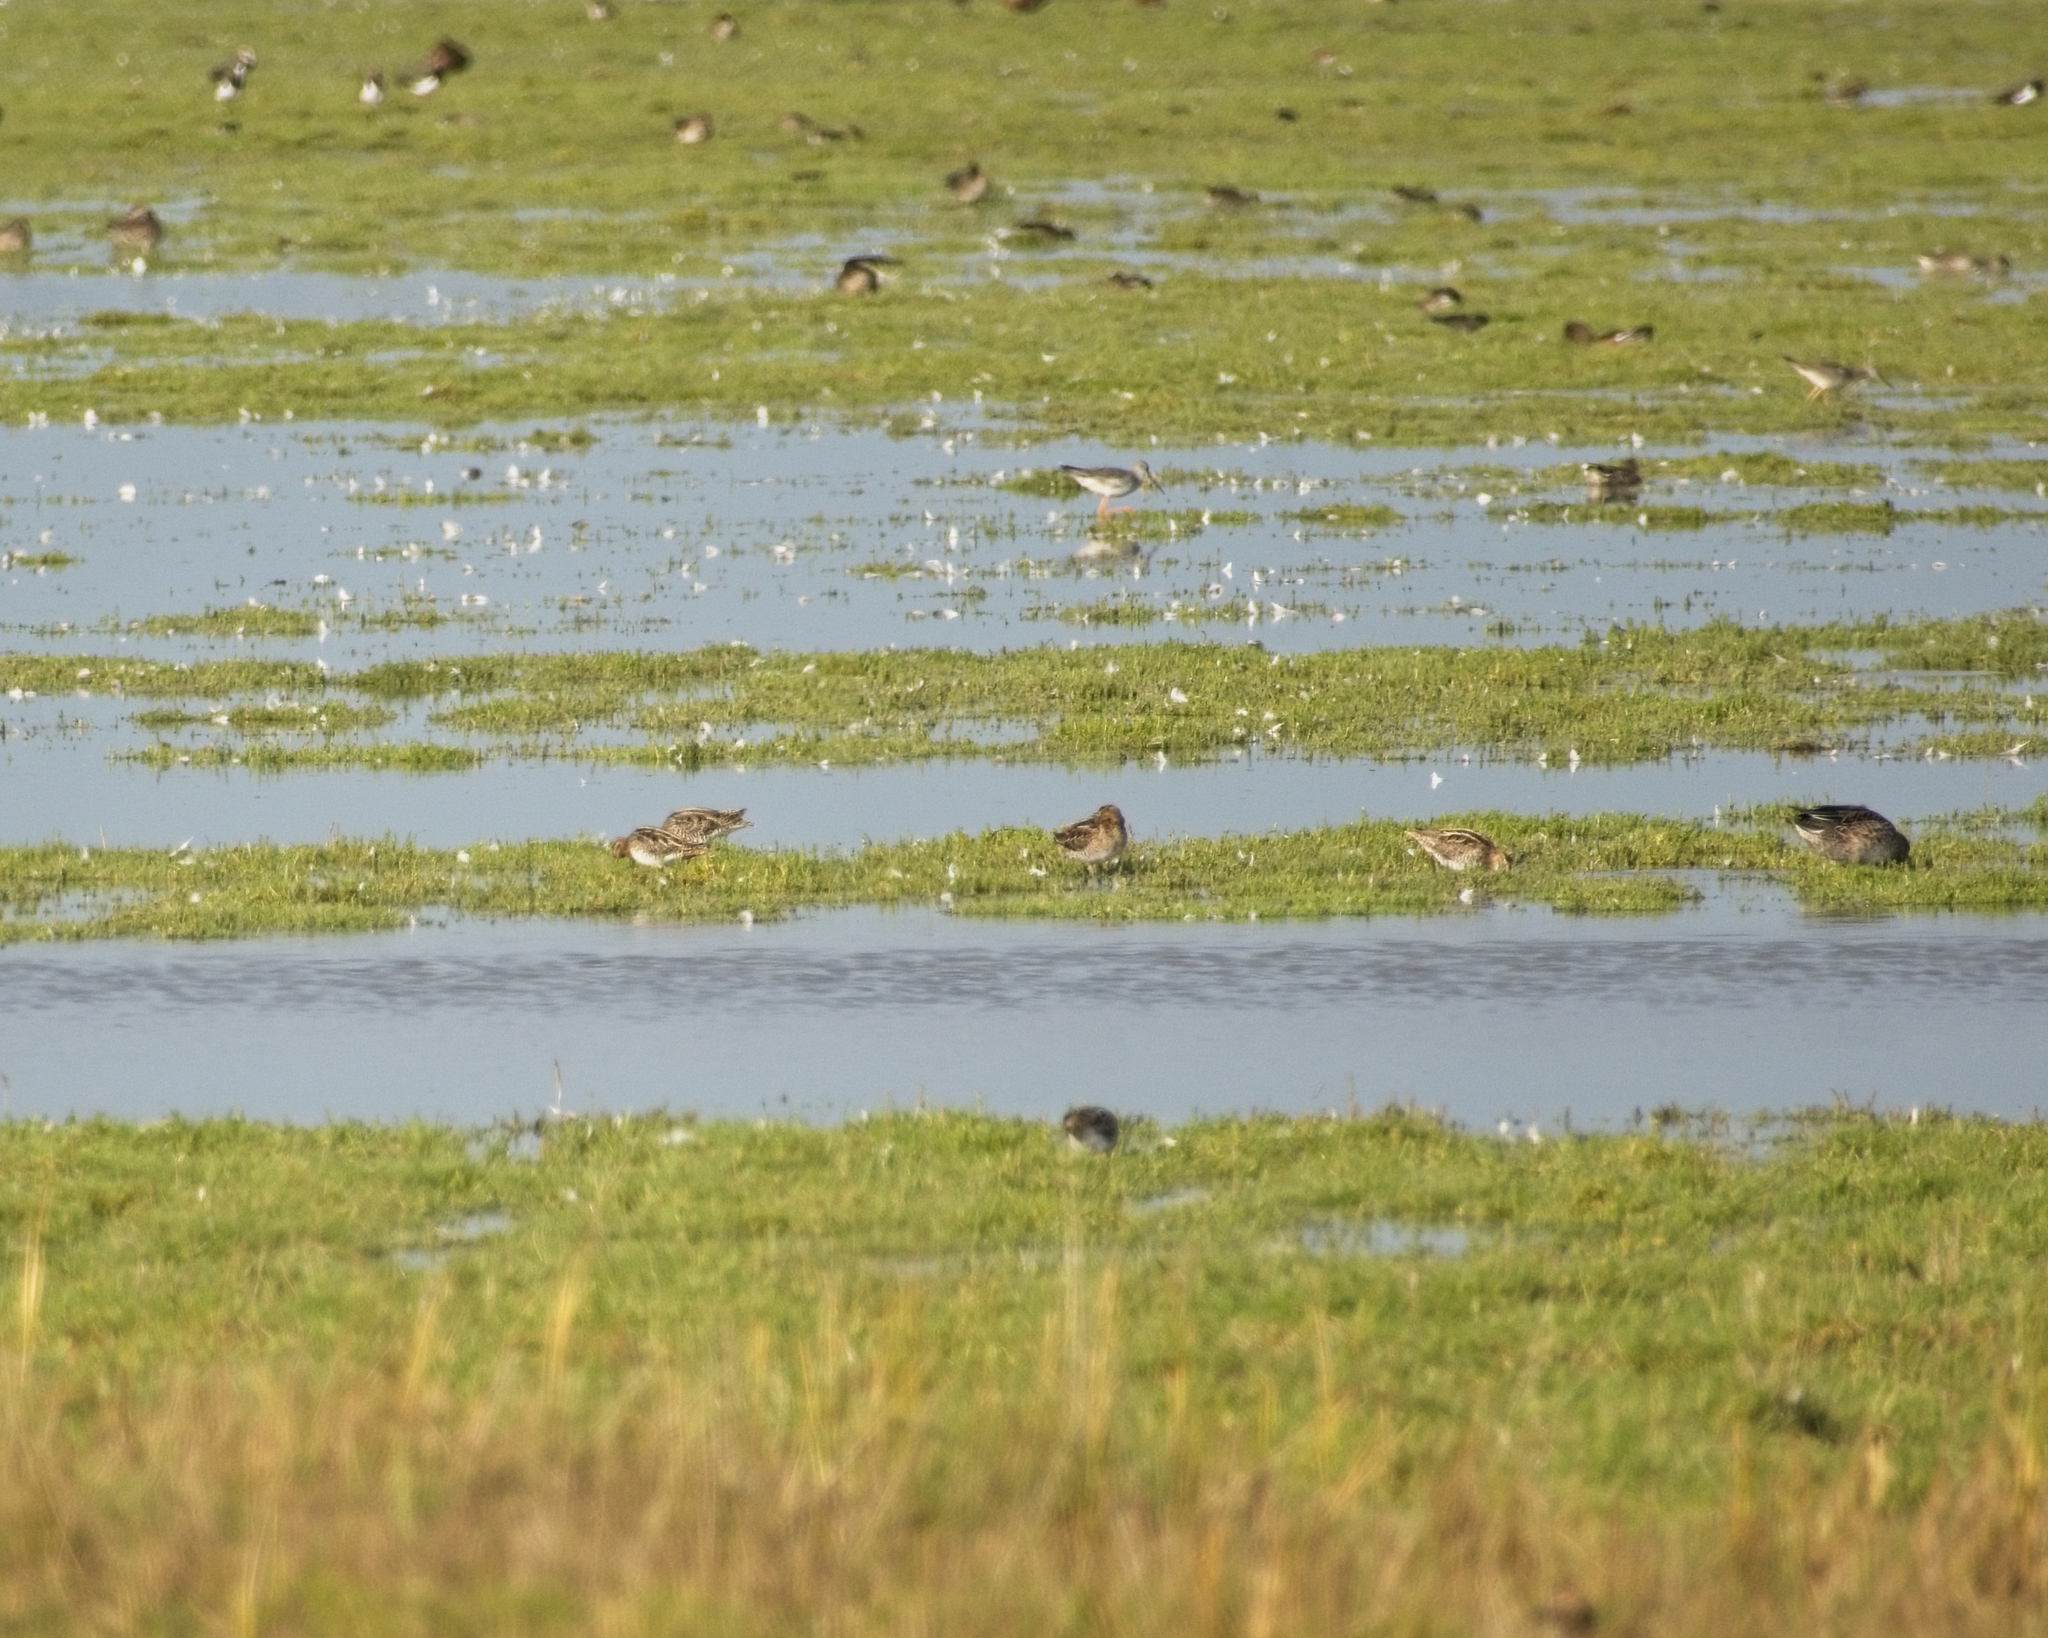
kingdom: Animalia
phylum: Chordata
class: Aves
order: Charadriiformes
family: Scolopacidae
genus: Gallinago
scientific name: Gallinago gallinago
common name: Common snipe
